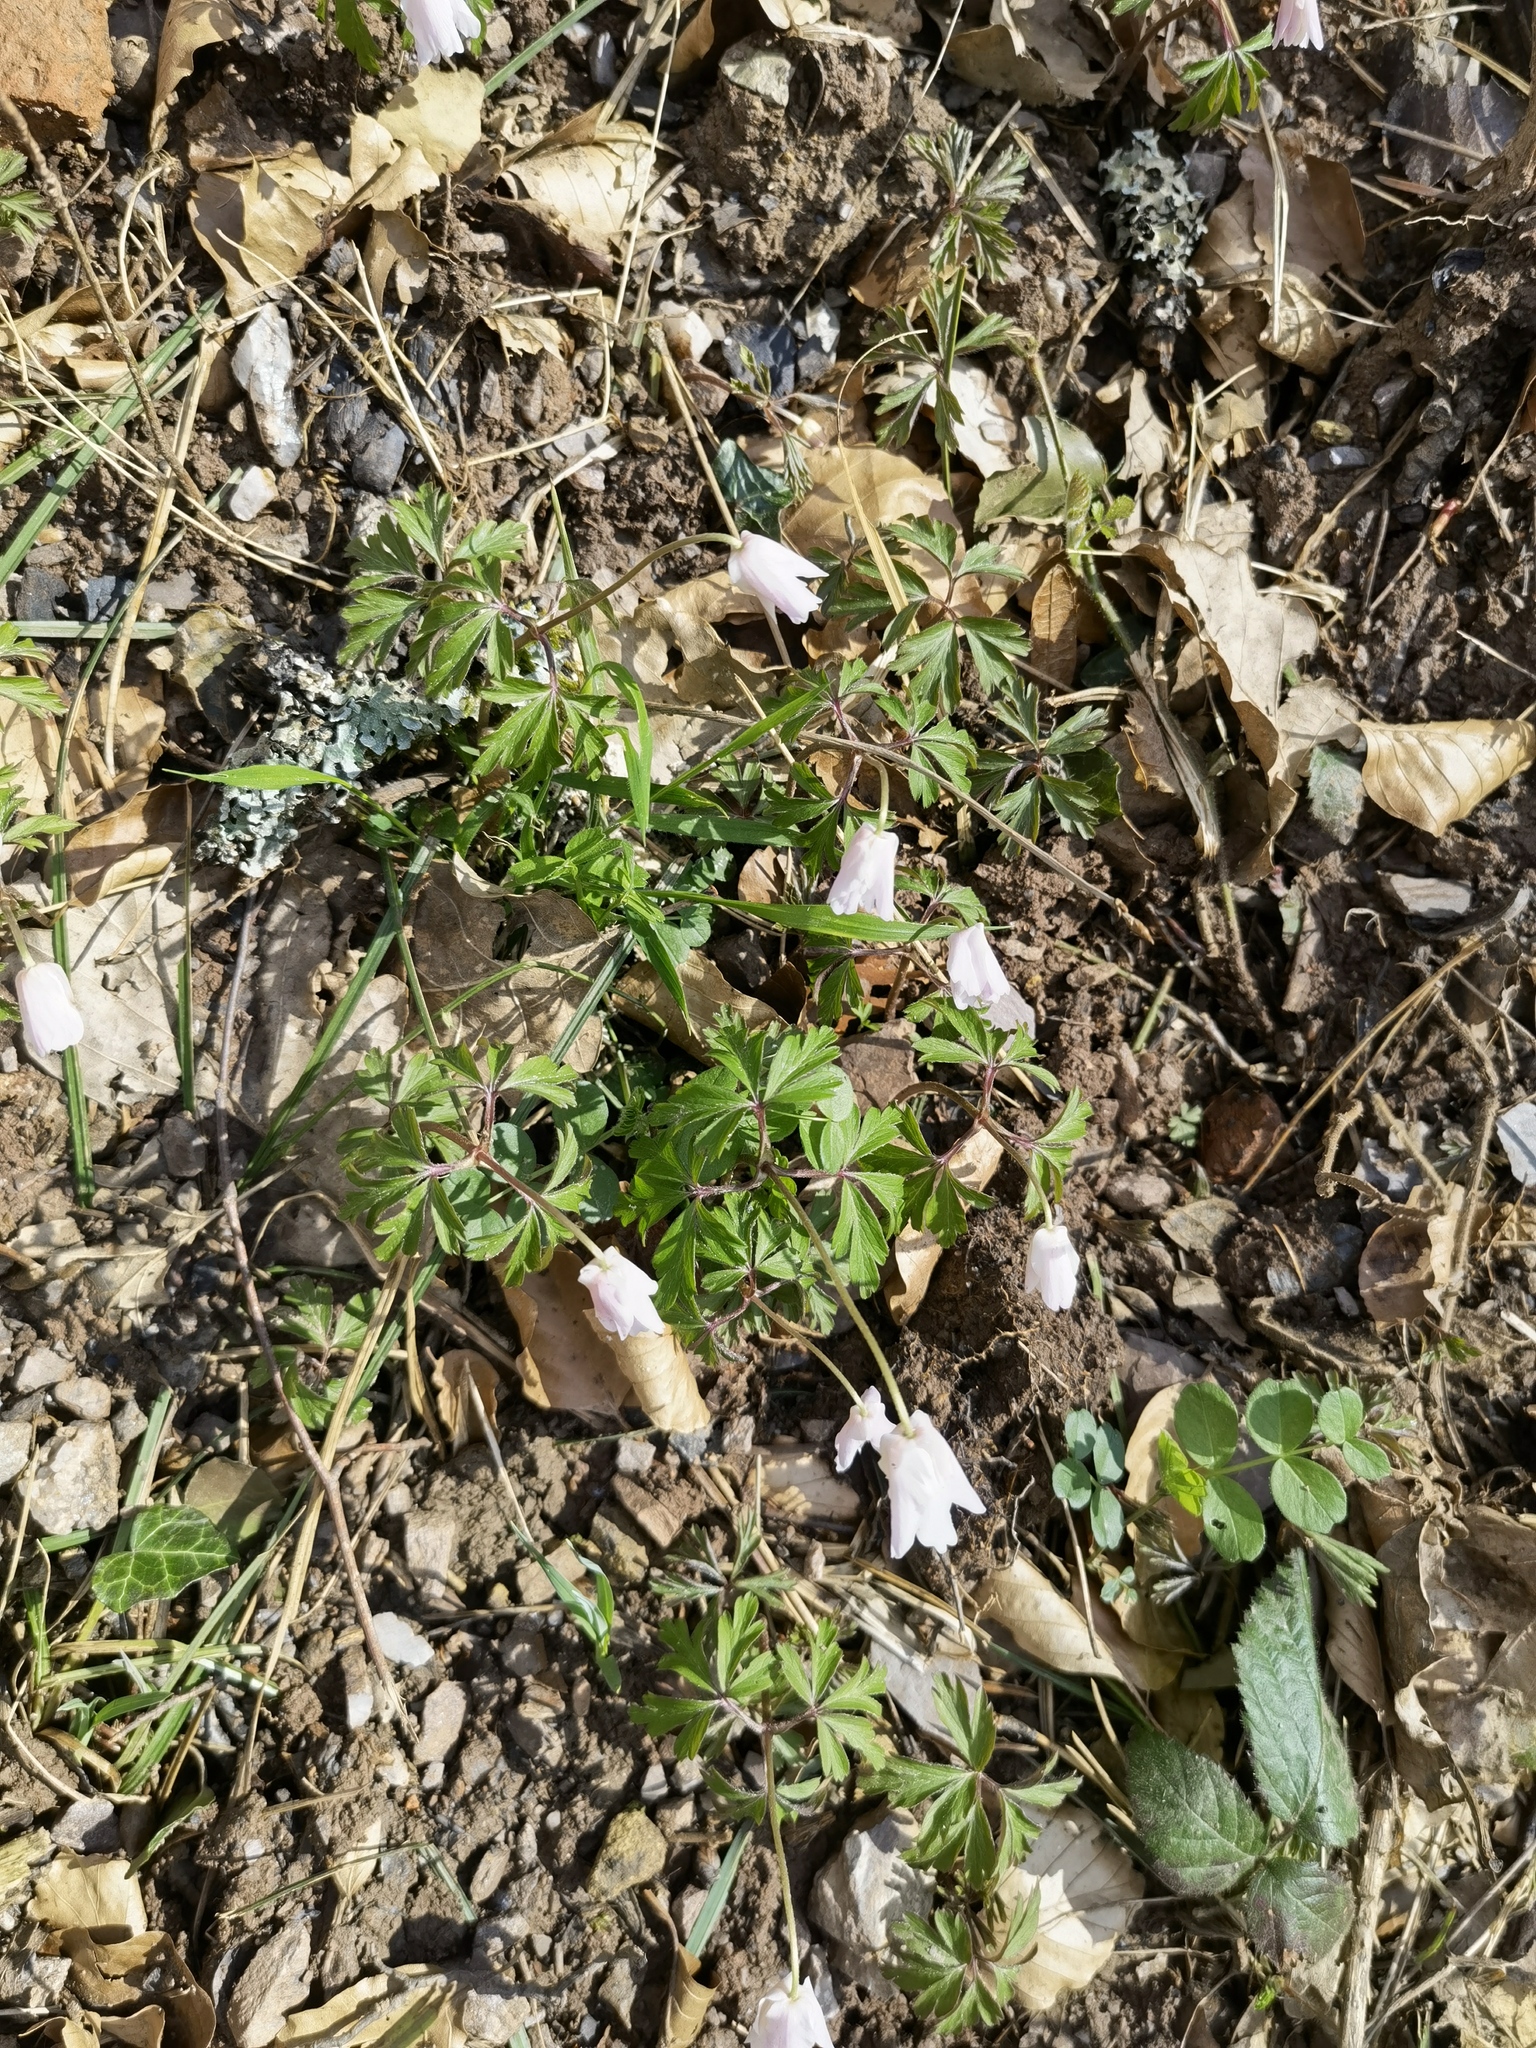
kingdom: Plantae
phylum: Tracheophyta
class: Magnoliopsida
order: Ranunculales
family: Ranunculaceae
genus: Anemone
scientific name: Anemone nemorosa
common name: Wood anemone
